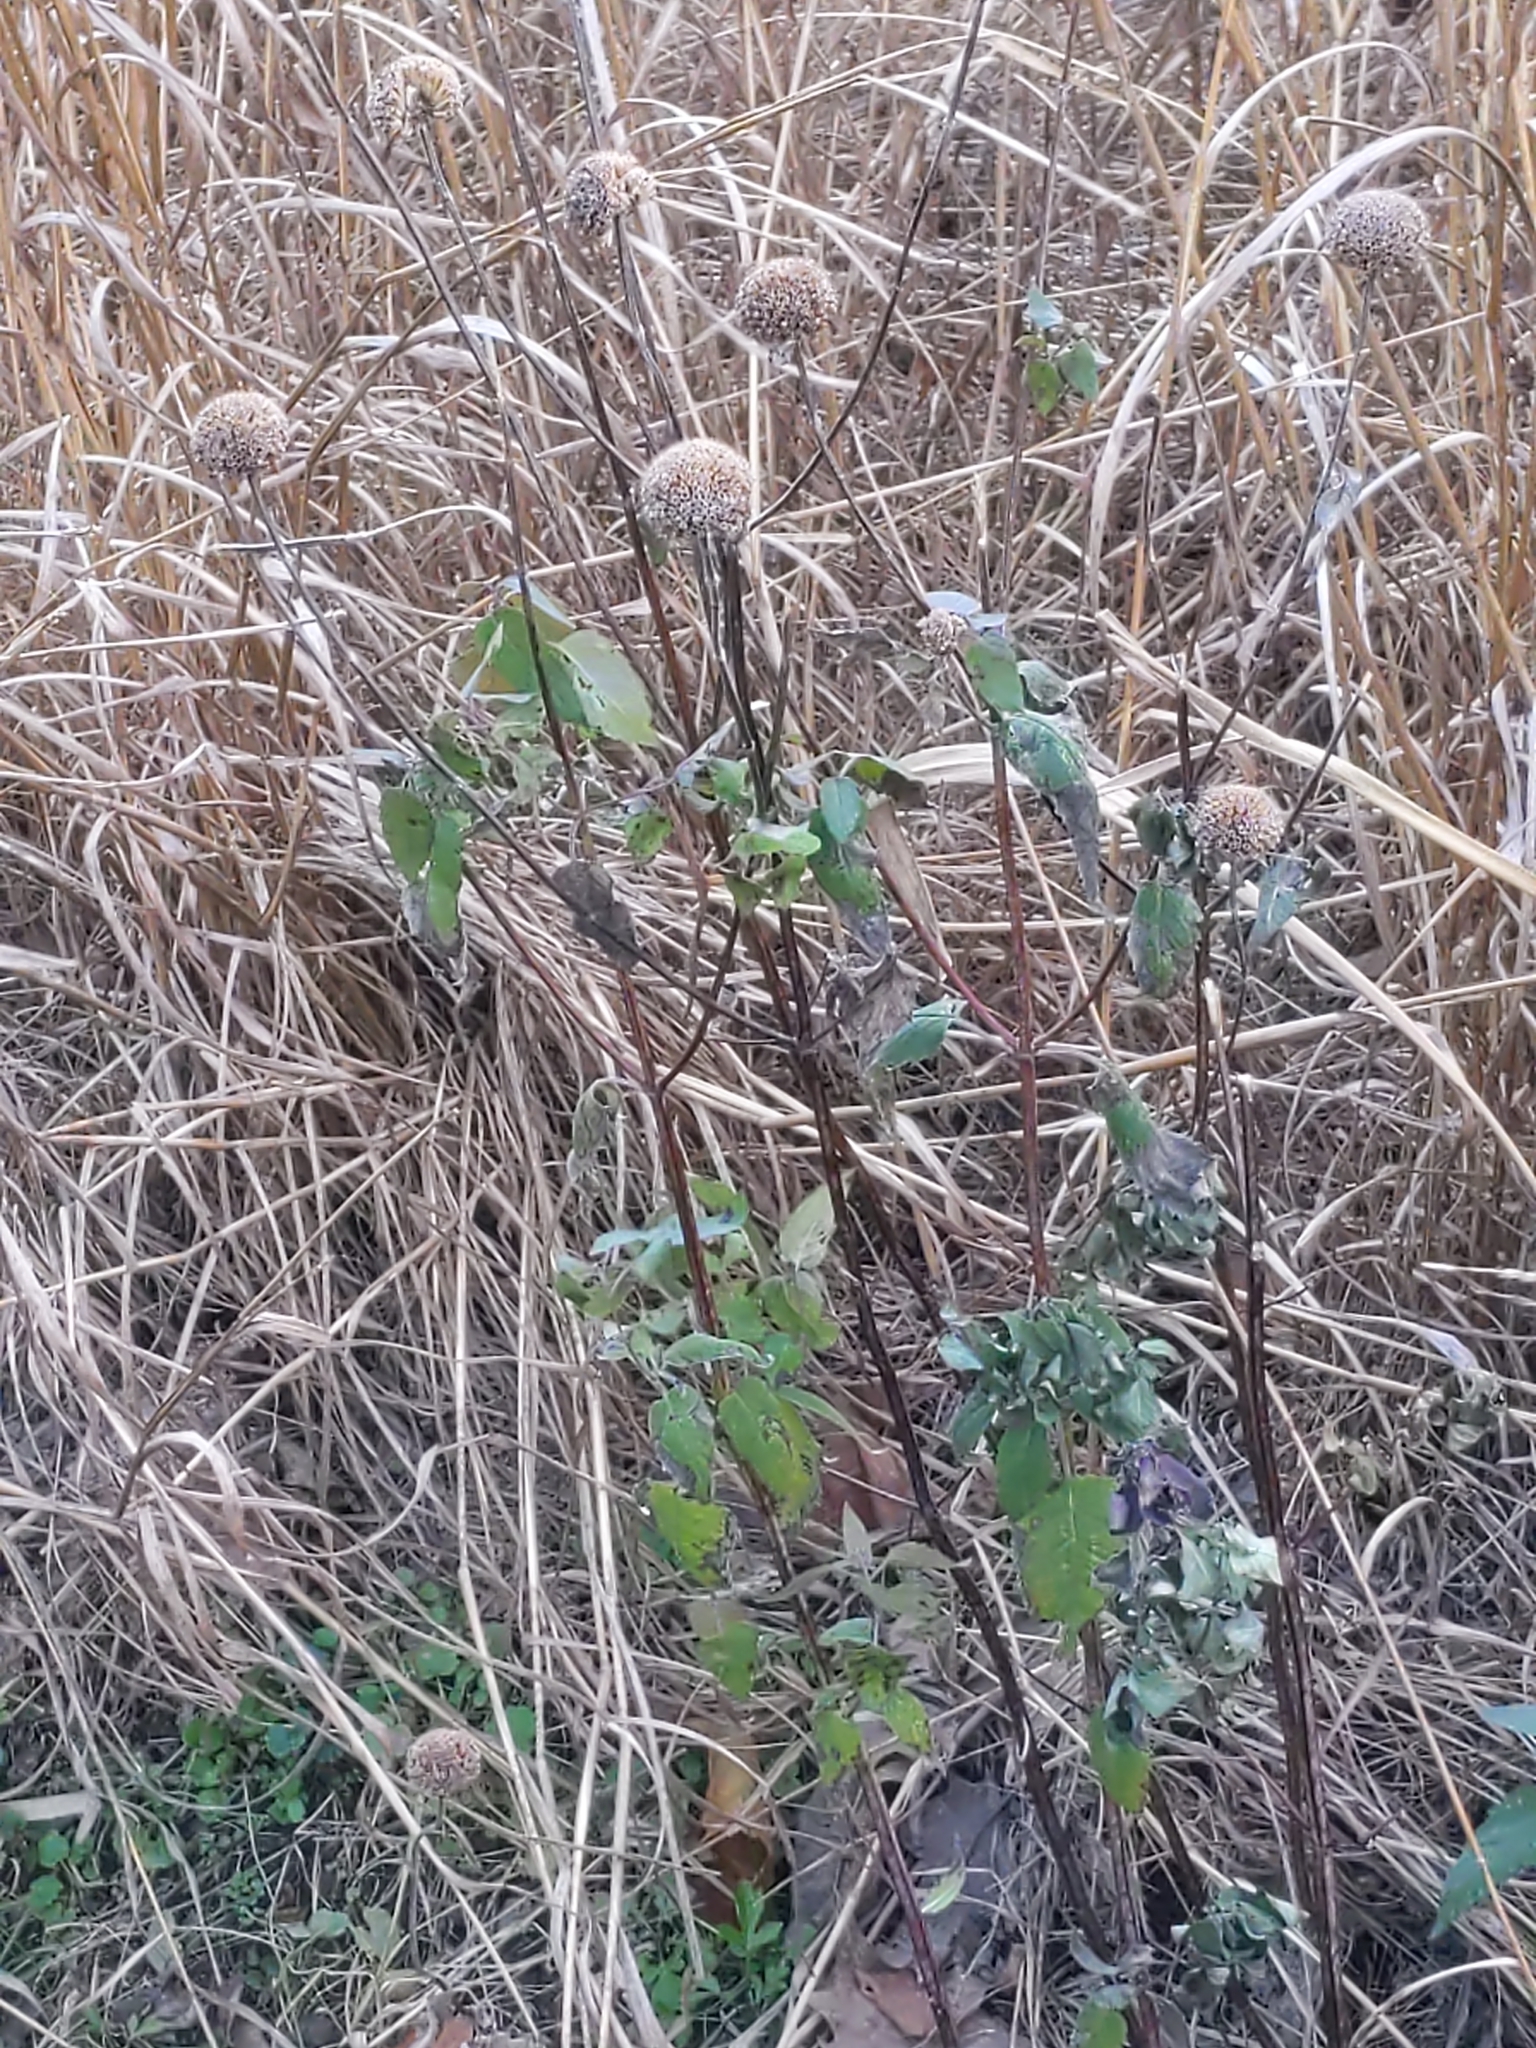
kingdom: Plantae
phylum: Tracheophyta
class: Magnoliopsida
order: Lamiales
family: Lamiaceae
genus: Monarda
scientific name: Monarda fistulosa
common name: Purple beebalm
